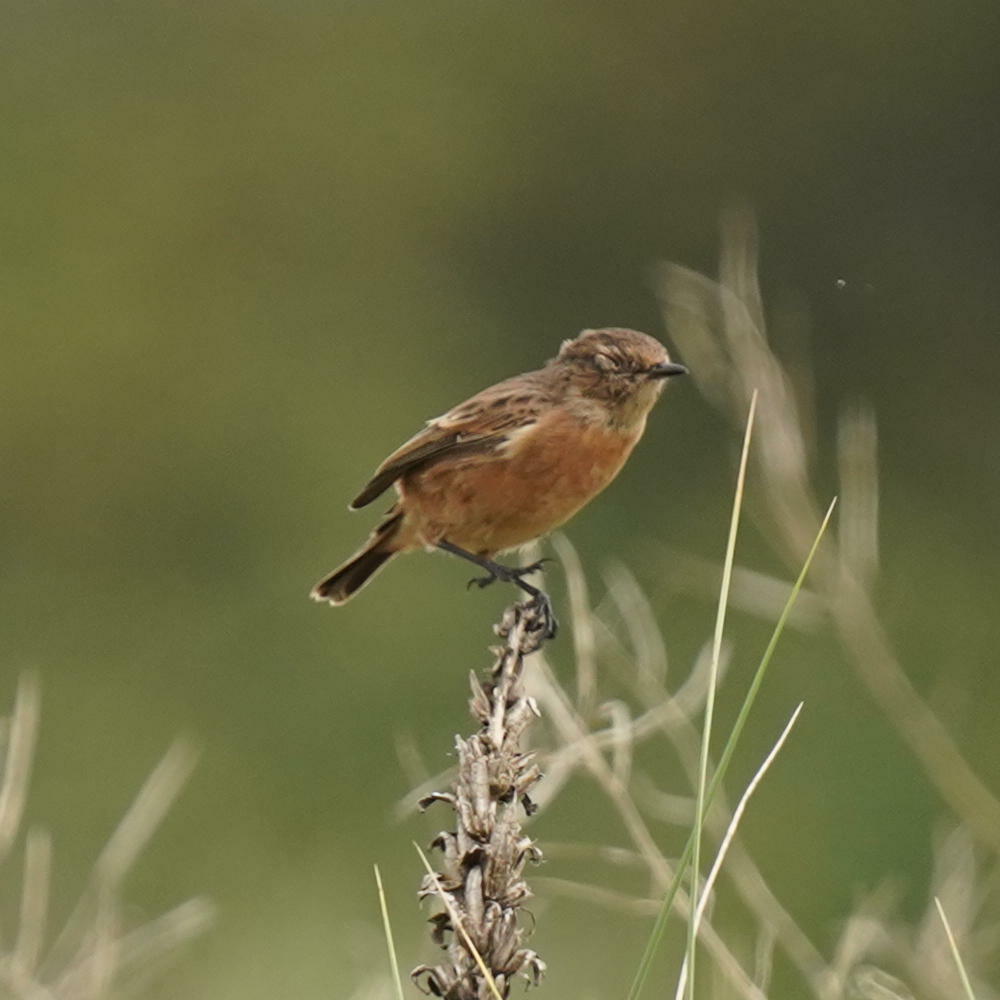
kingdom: Animalia
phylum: Chordata
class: Aves
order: Passeriformes
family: Muscicapidae
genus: Saxicola
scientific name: Saxicola rubicola
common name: European stonechat
